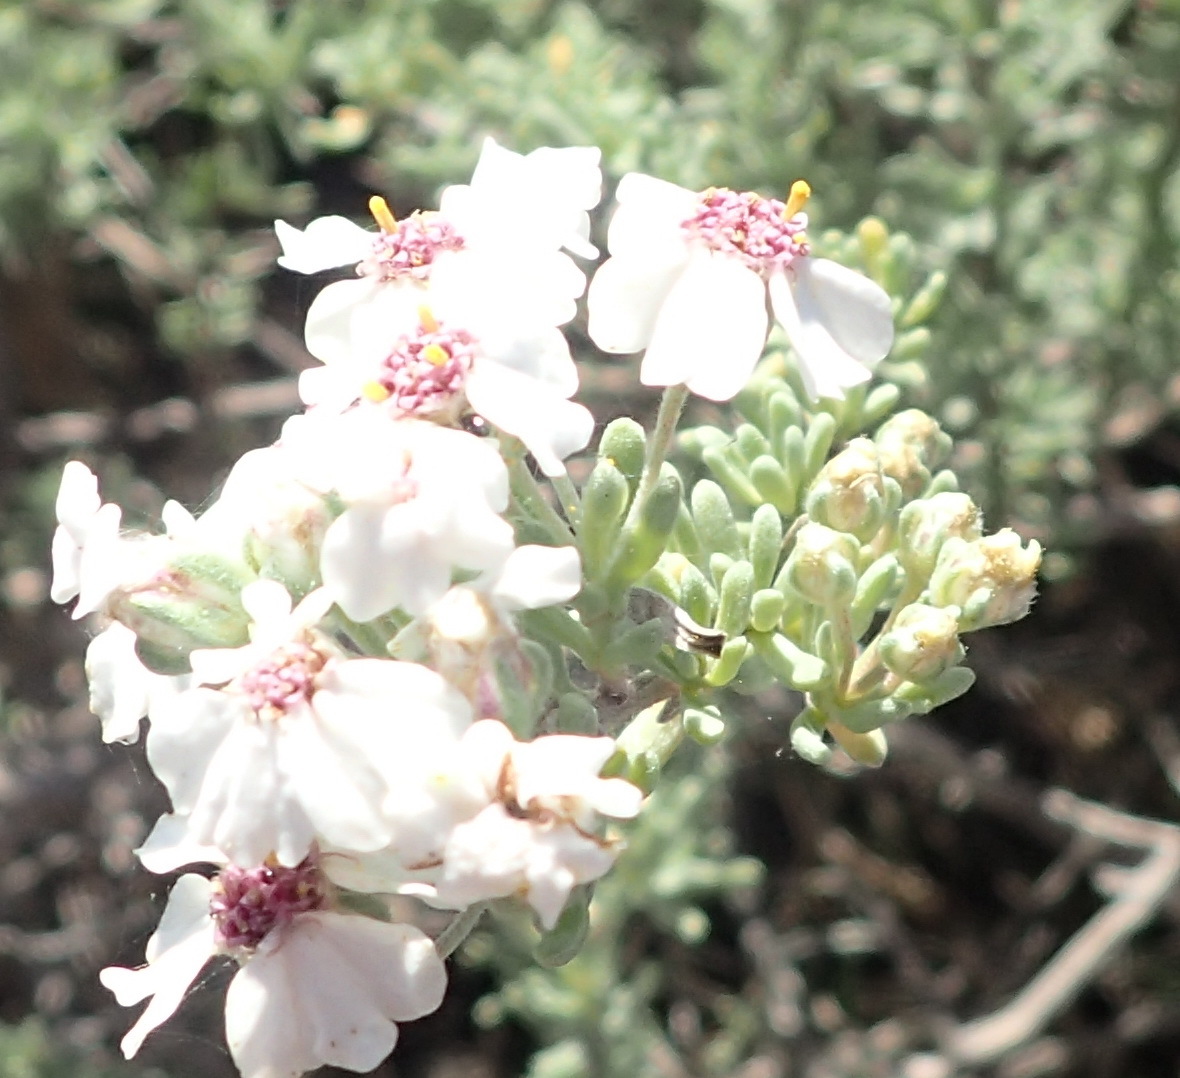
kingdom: Plantae
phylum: Tracheophyta
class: Magnoliopsida
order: Asterales
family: Asteraceae
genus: Eriocephalus
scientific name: Eriocephalus africanus
